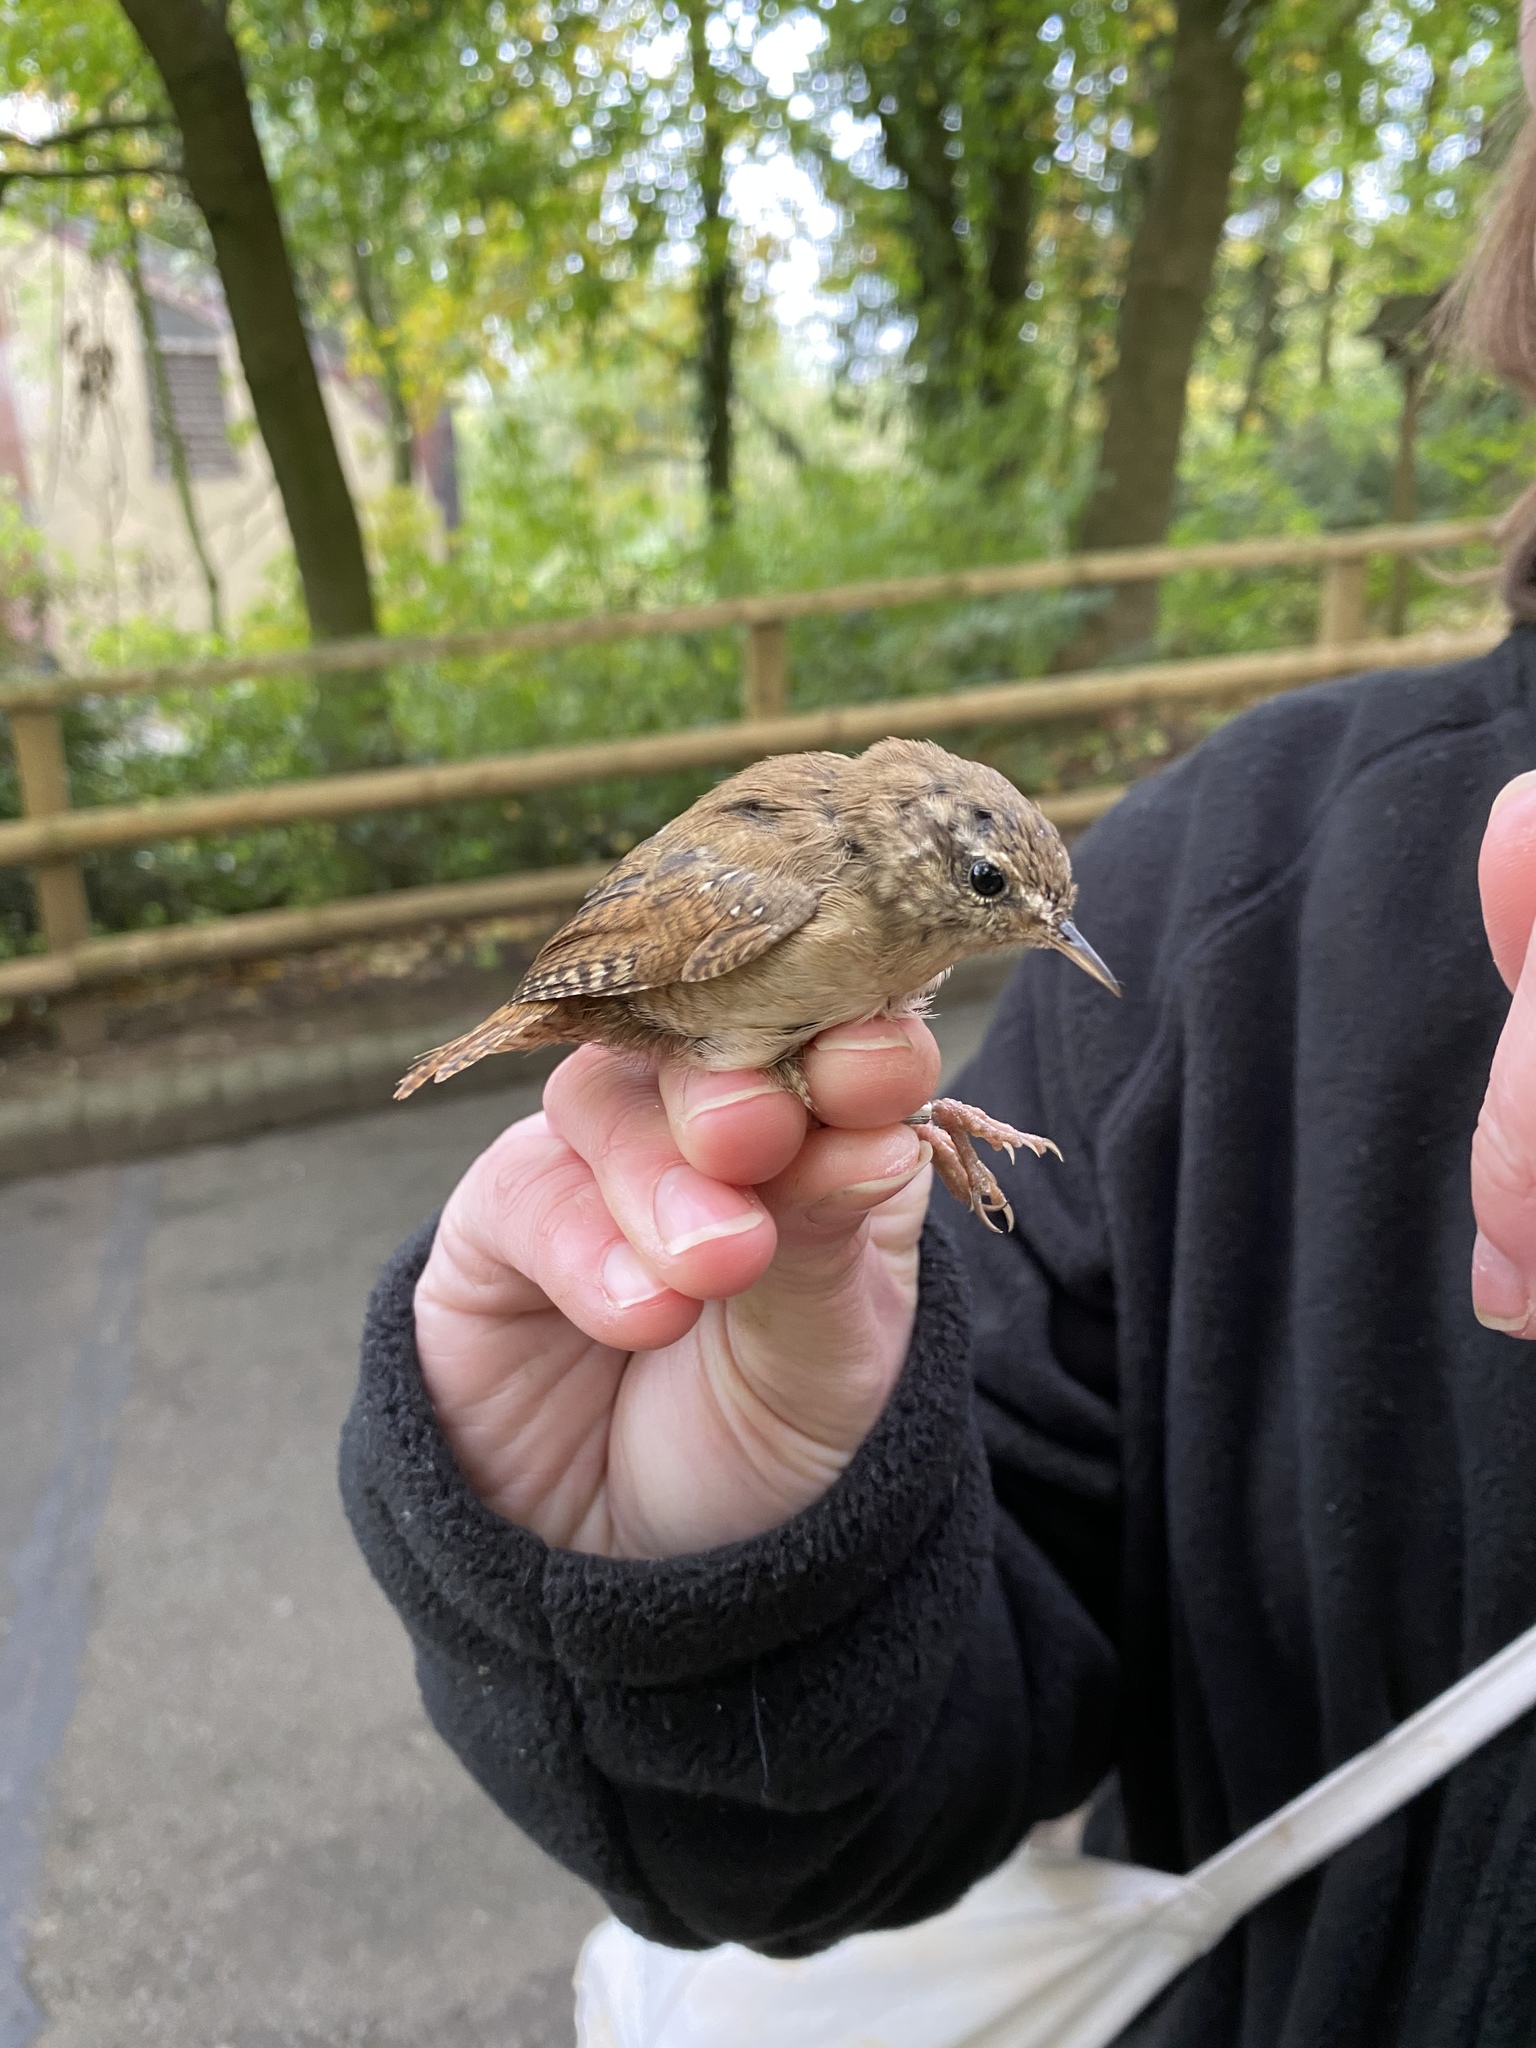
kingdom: Animalia
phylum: Chordata
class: Aves
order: Passeriformes
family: Troglodytidae
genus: Troglodytes
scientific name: Troglodytes troglodytes
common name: Eurasian wren
